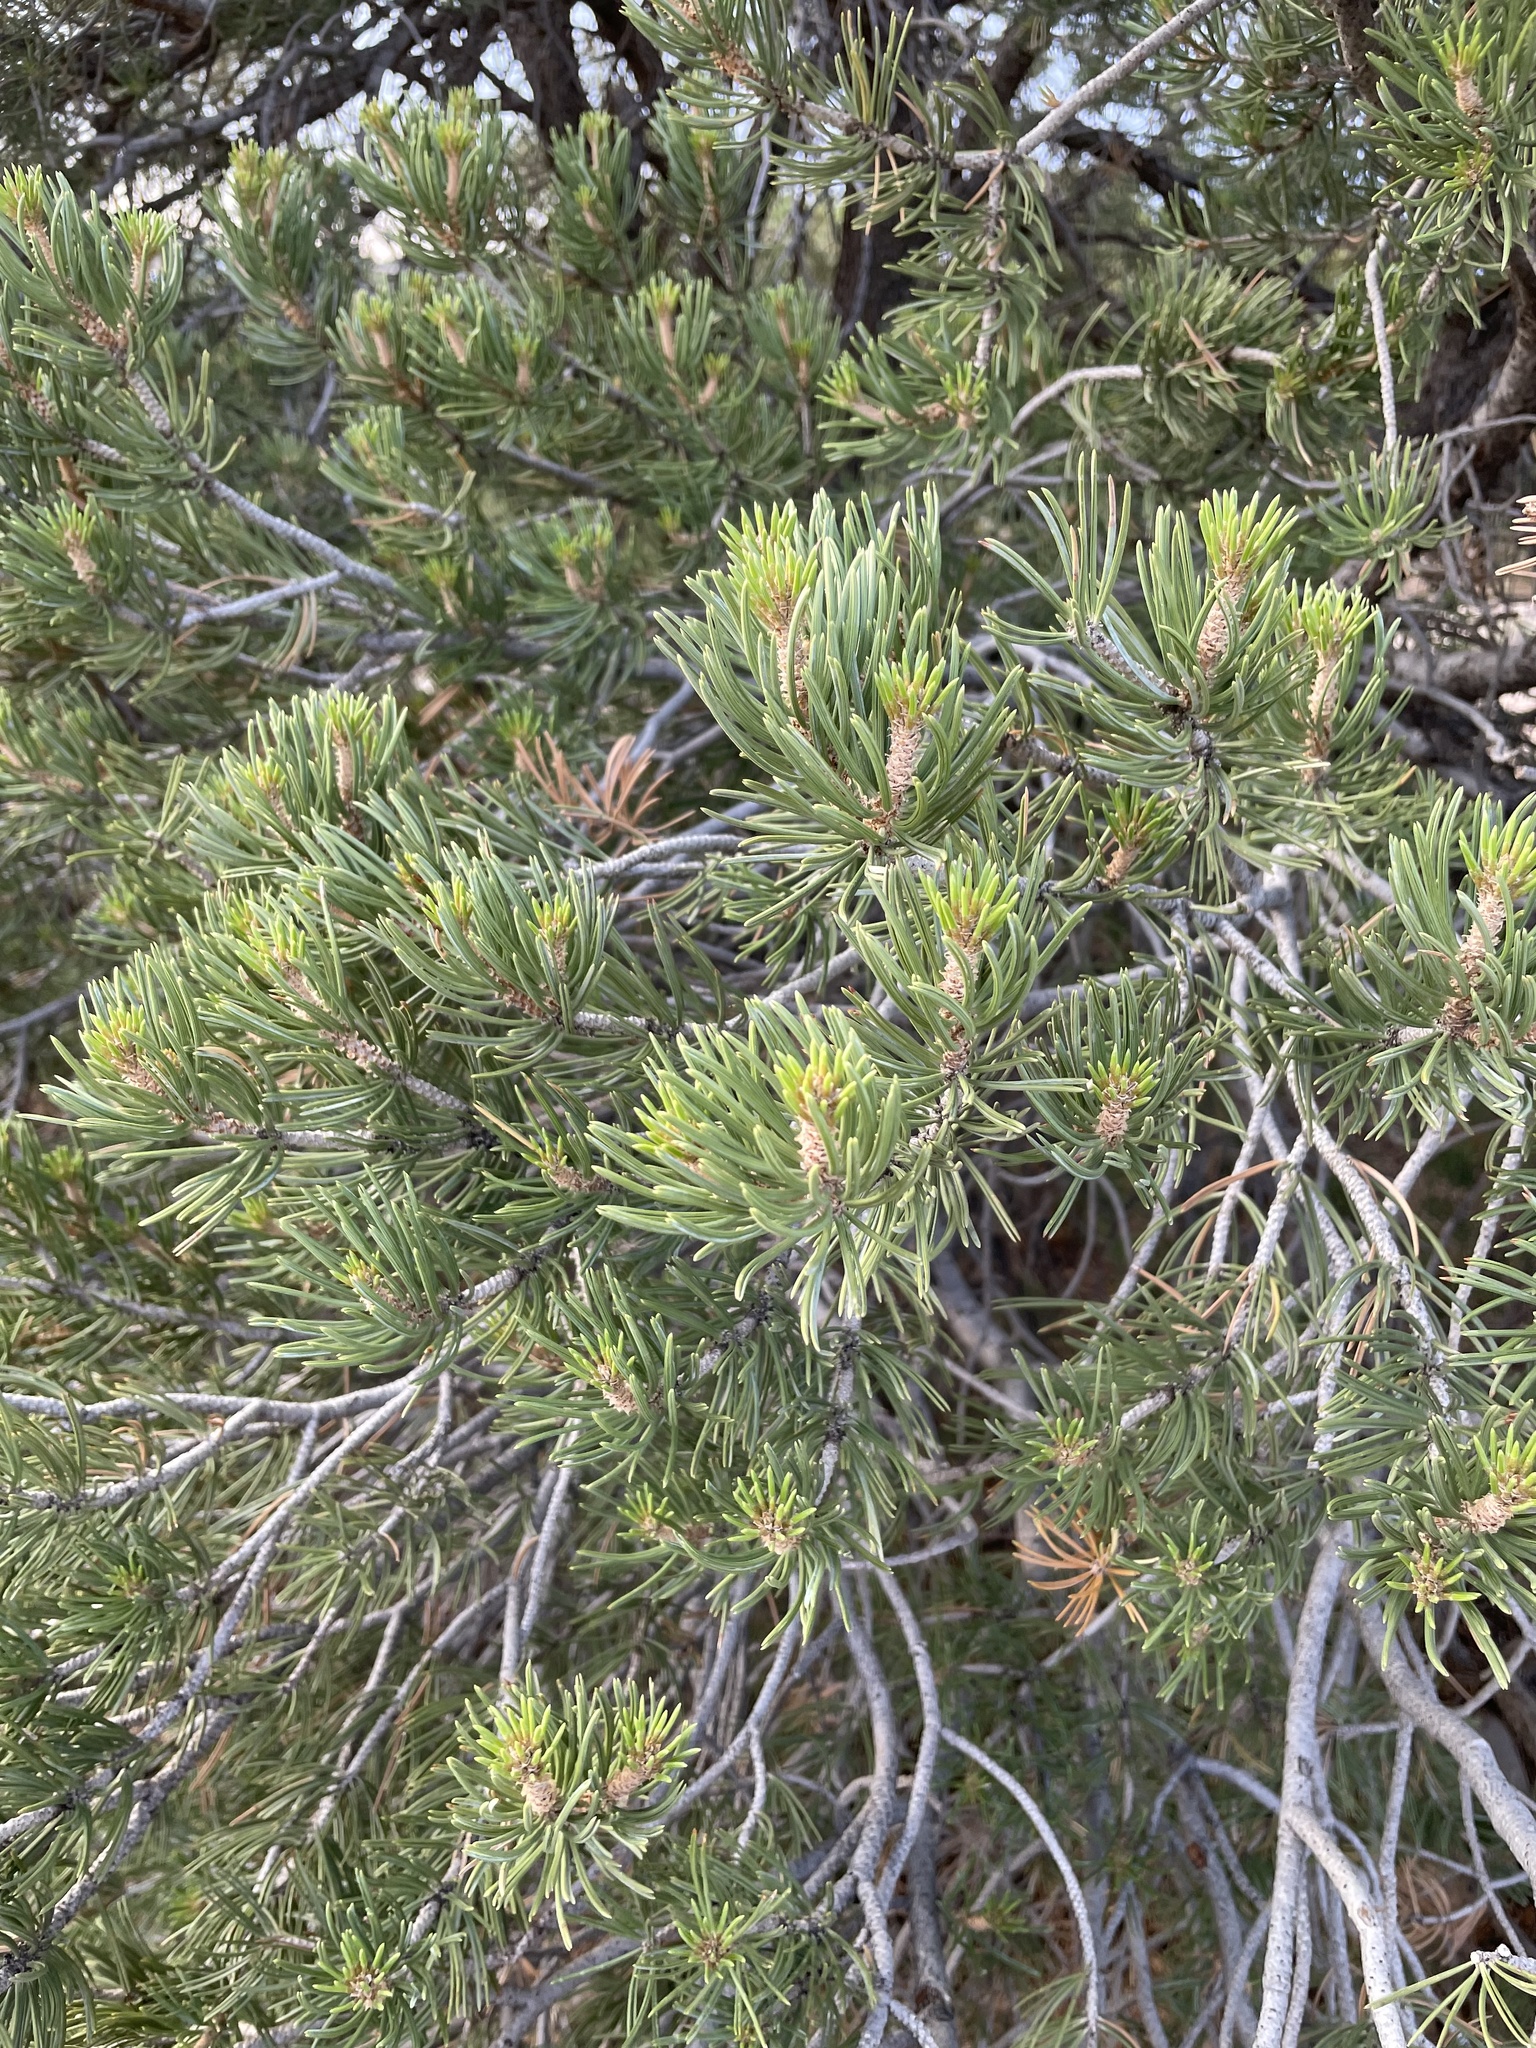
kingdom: Plantae
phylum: Tracheophyta
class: Pinopsida
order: Pinales
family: Pinaceae
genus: Pinus
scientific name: Pinus edulis
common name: Colorado pinyon
